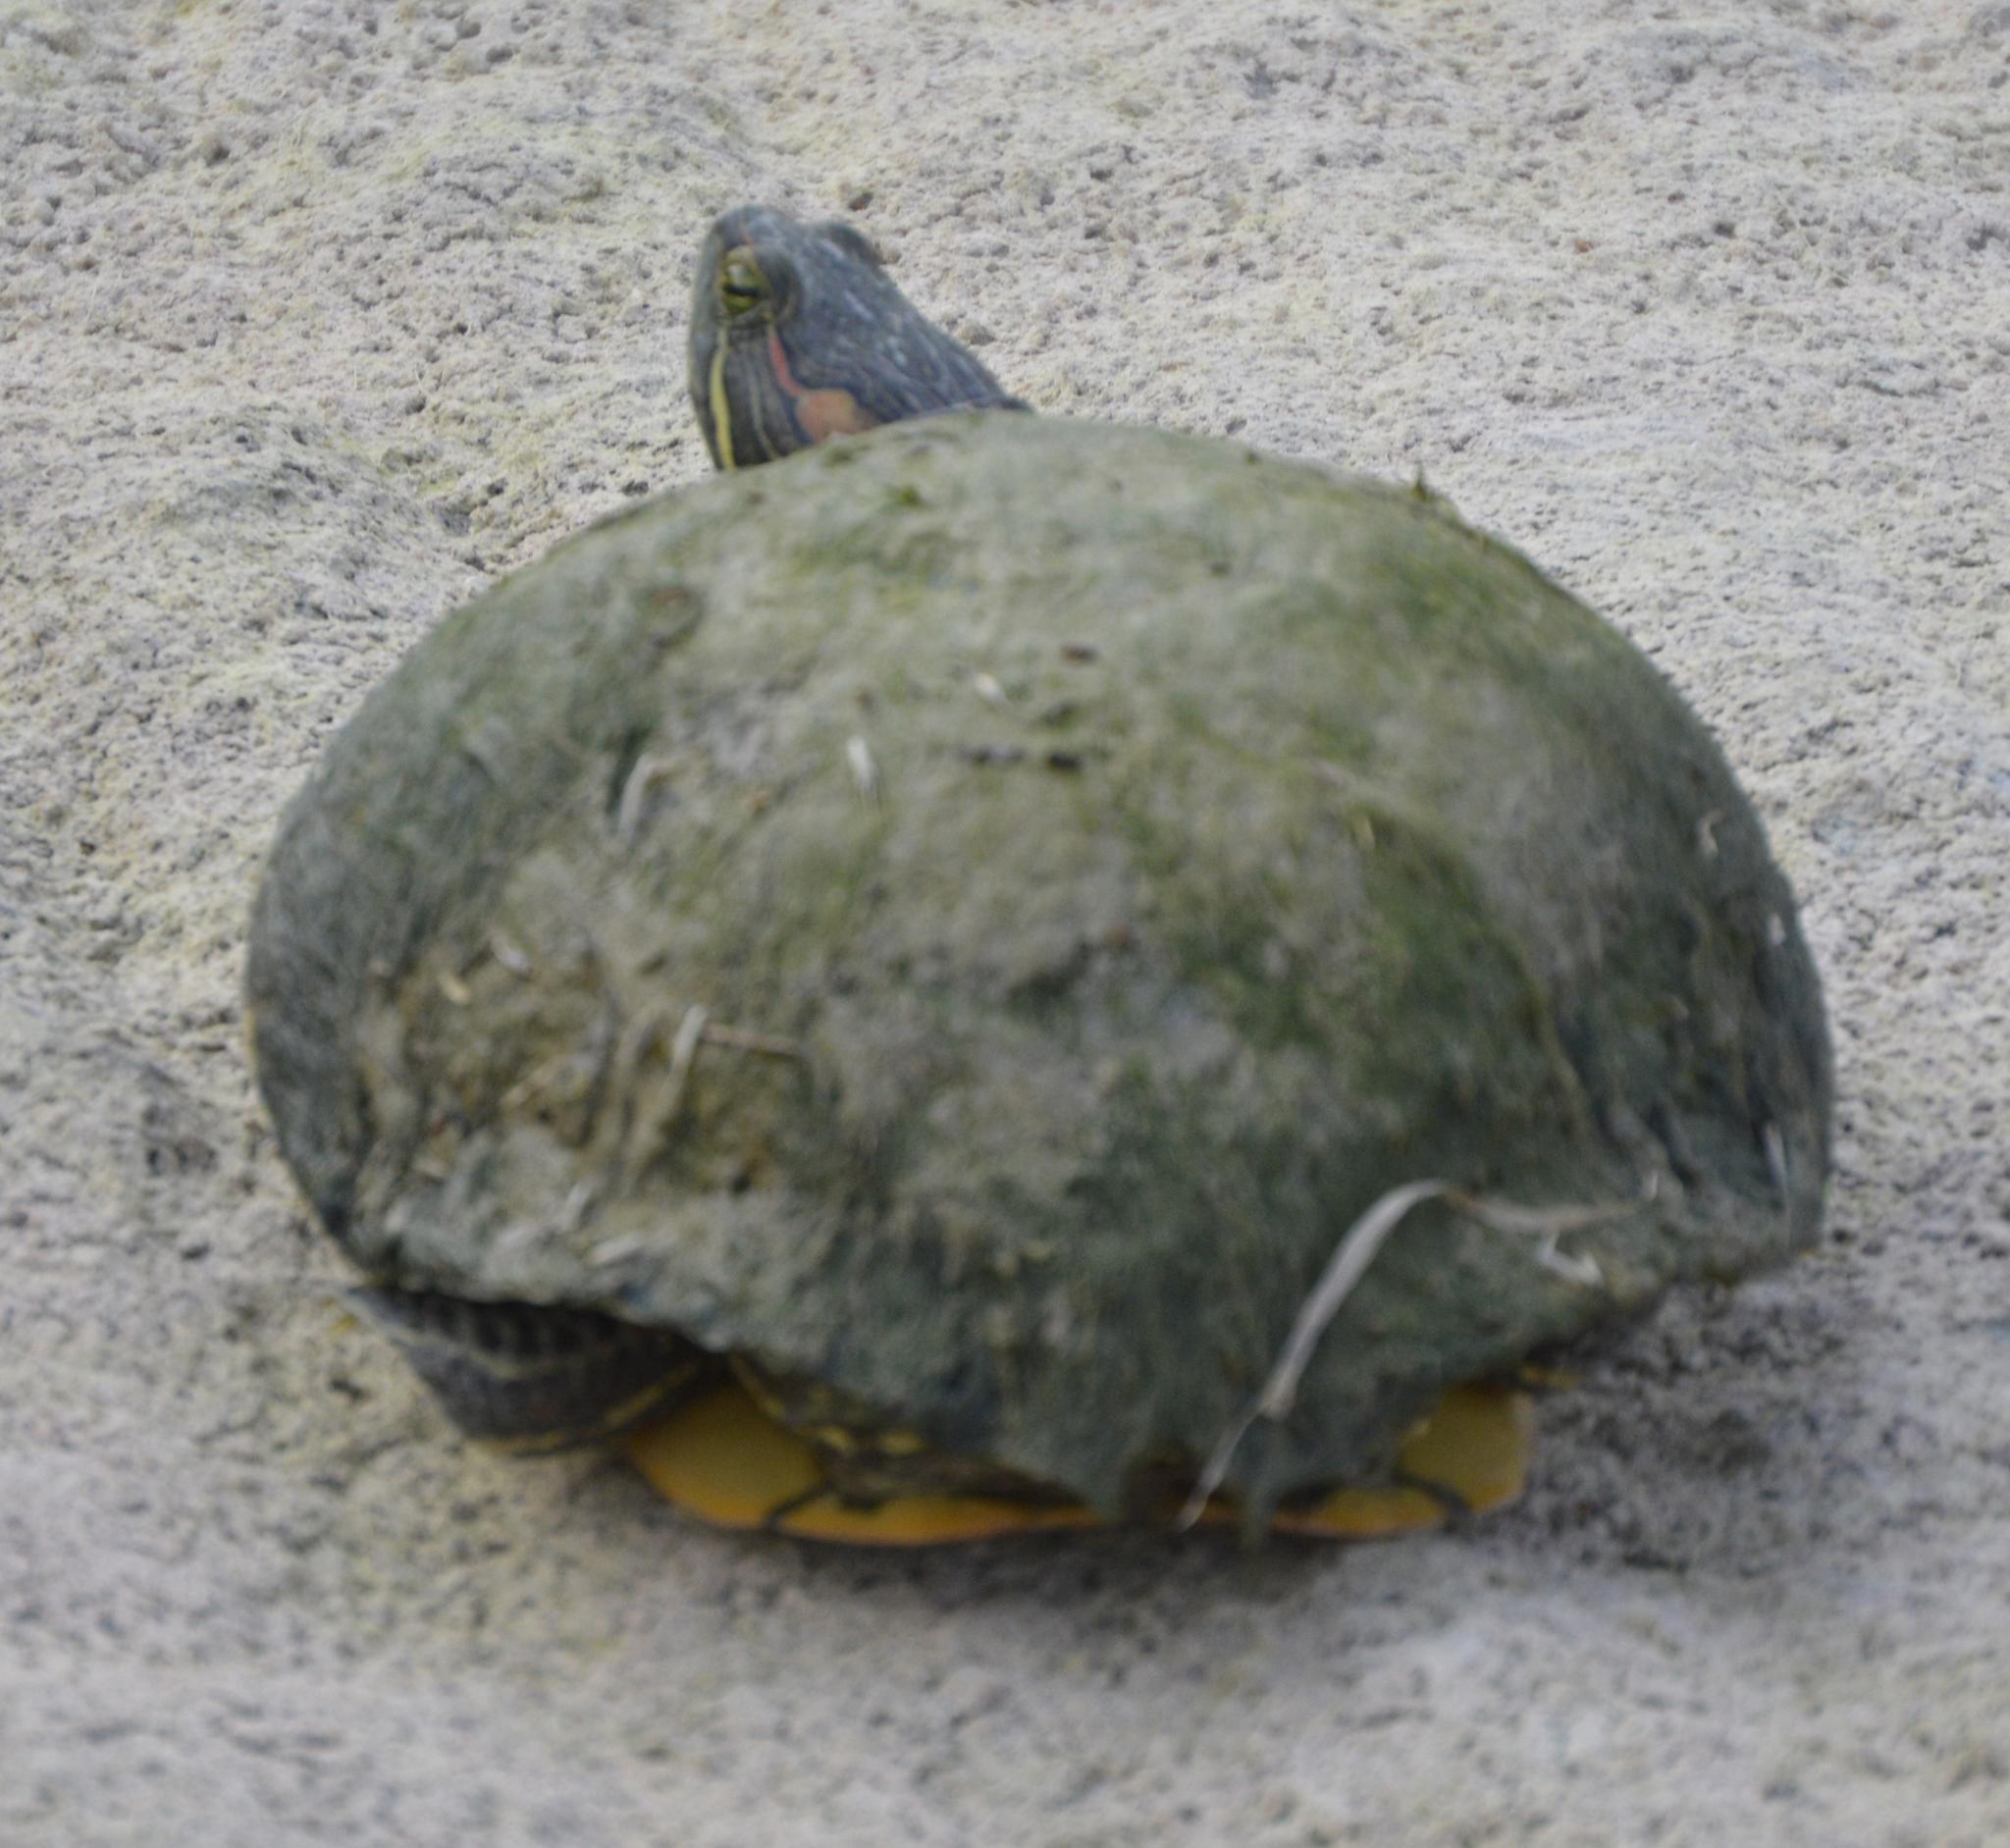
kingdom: Animalia
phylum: Chordata
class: Testudines
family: Emydidae
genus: Trachemys
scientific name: Trachemys scripta
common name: Slider
